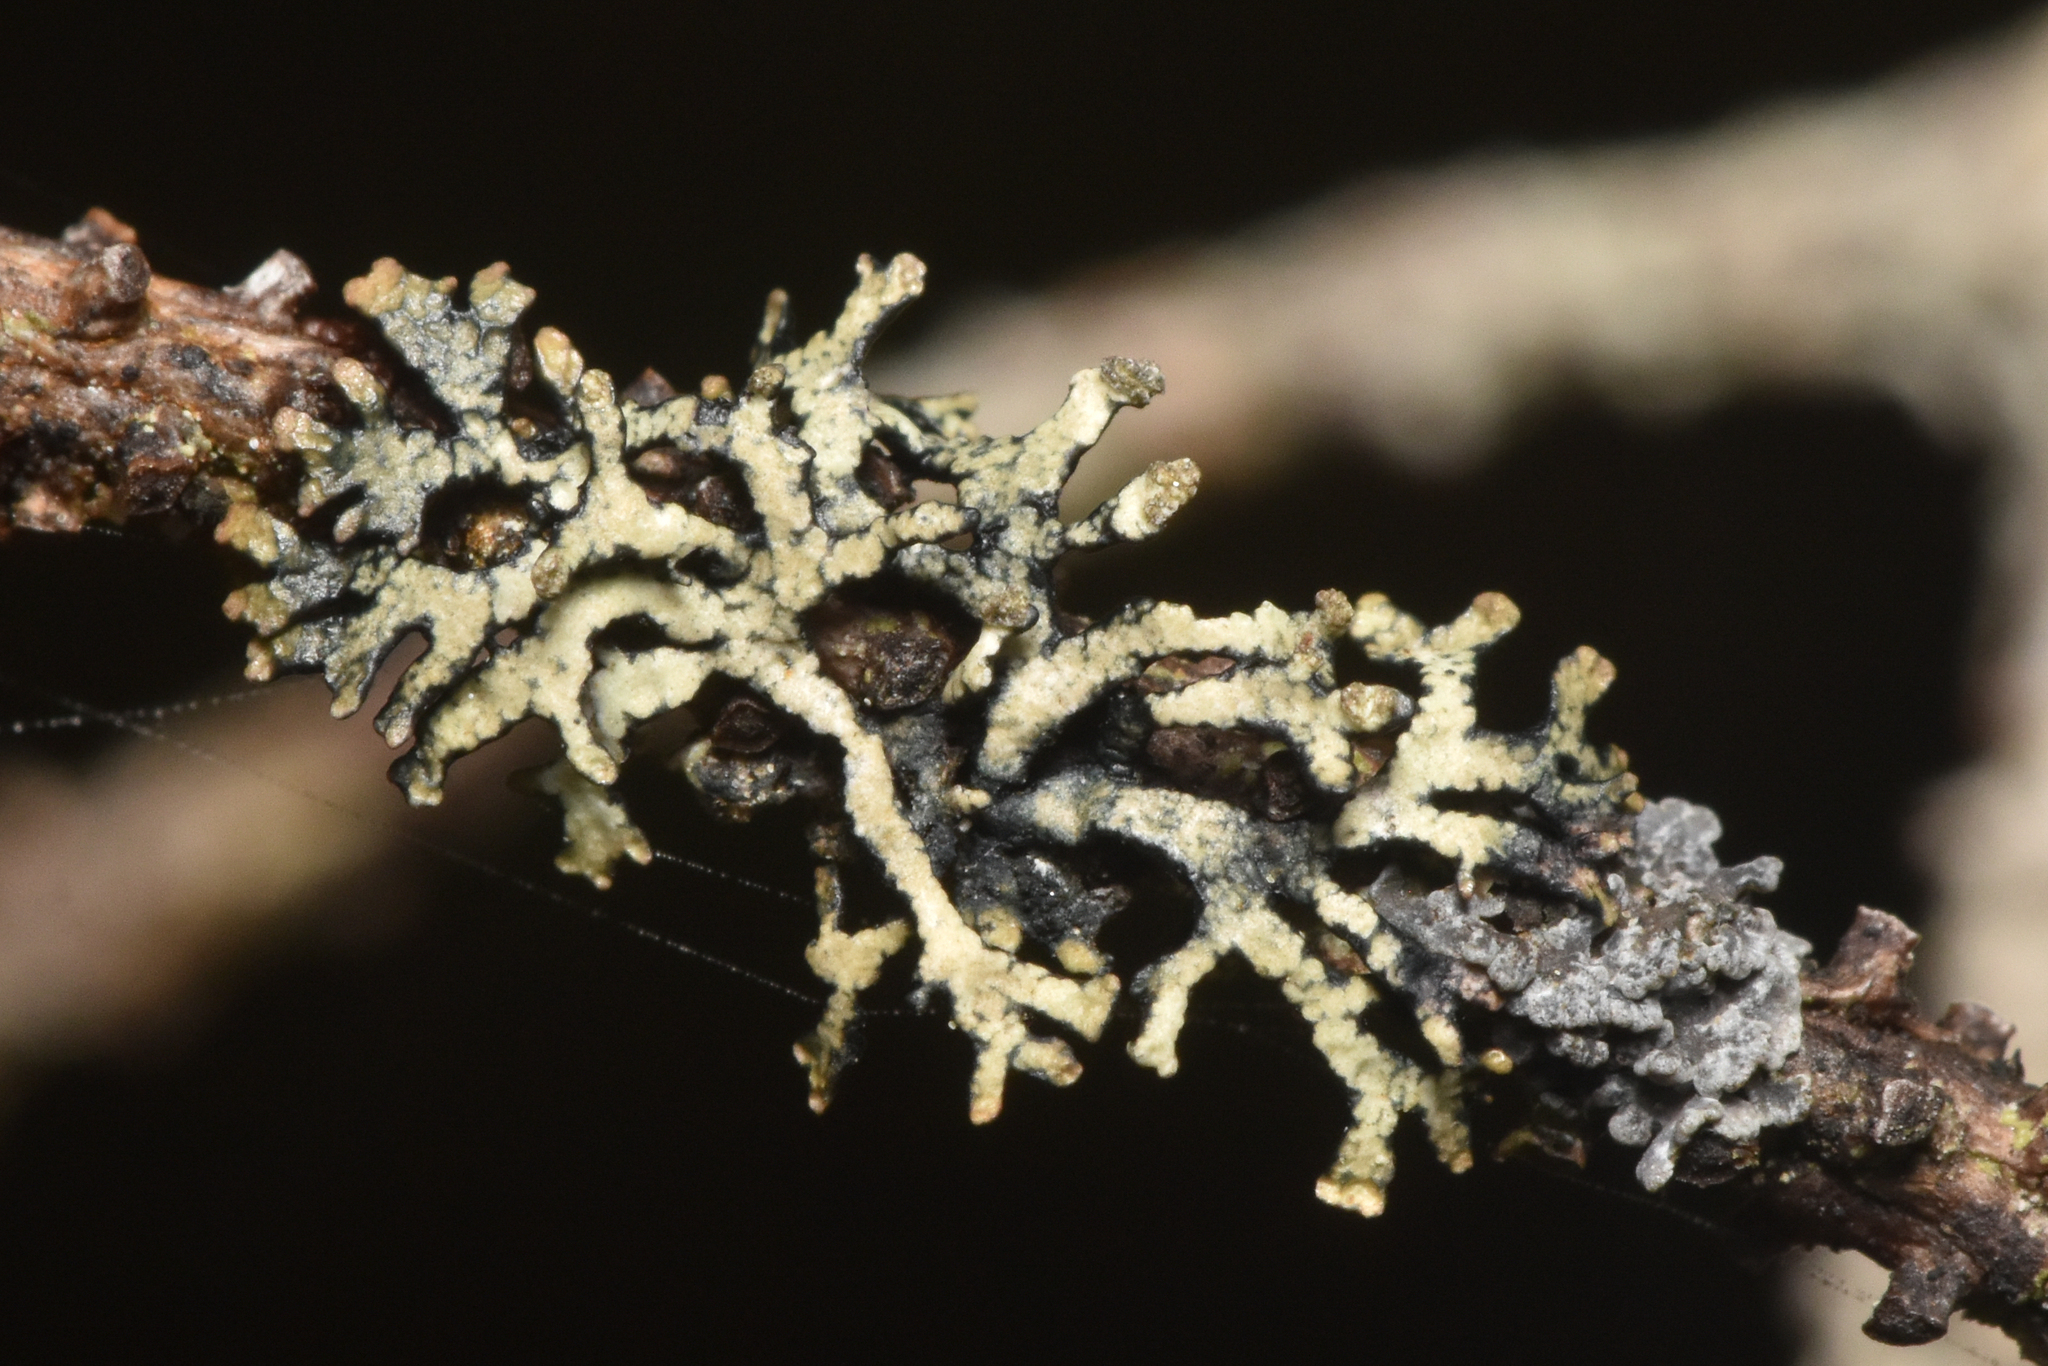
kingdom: Fungi
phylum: Ascomycota
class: Lecanoromycetes
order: Lecanorales
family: Parmeliaceae
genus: Hypogymnia
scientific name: Hypogymnia hultenii
